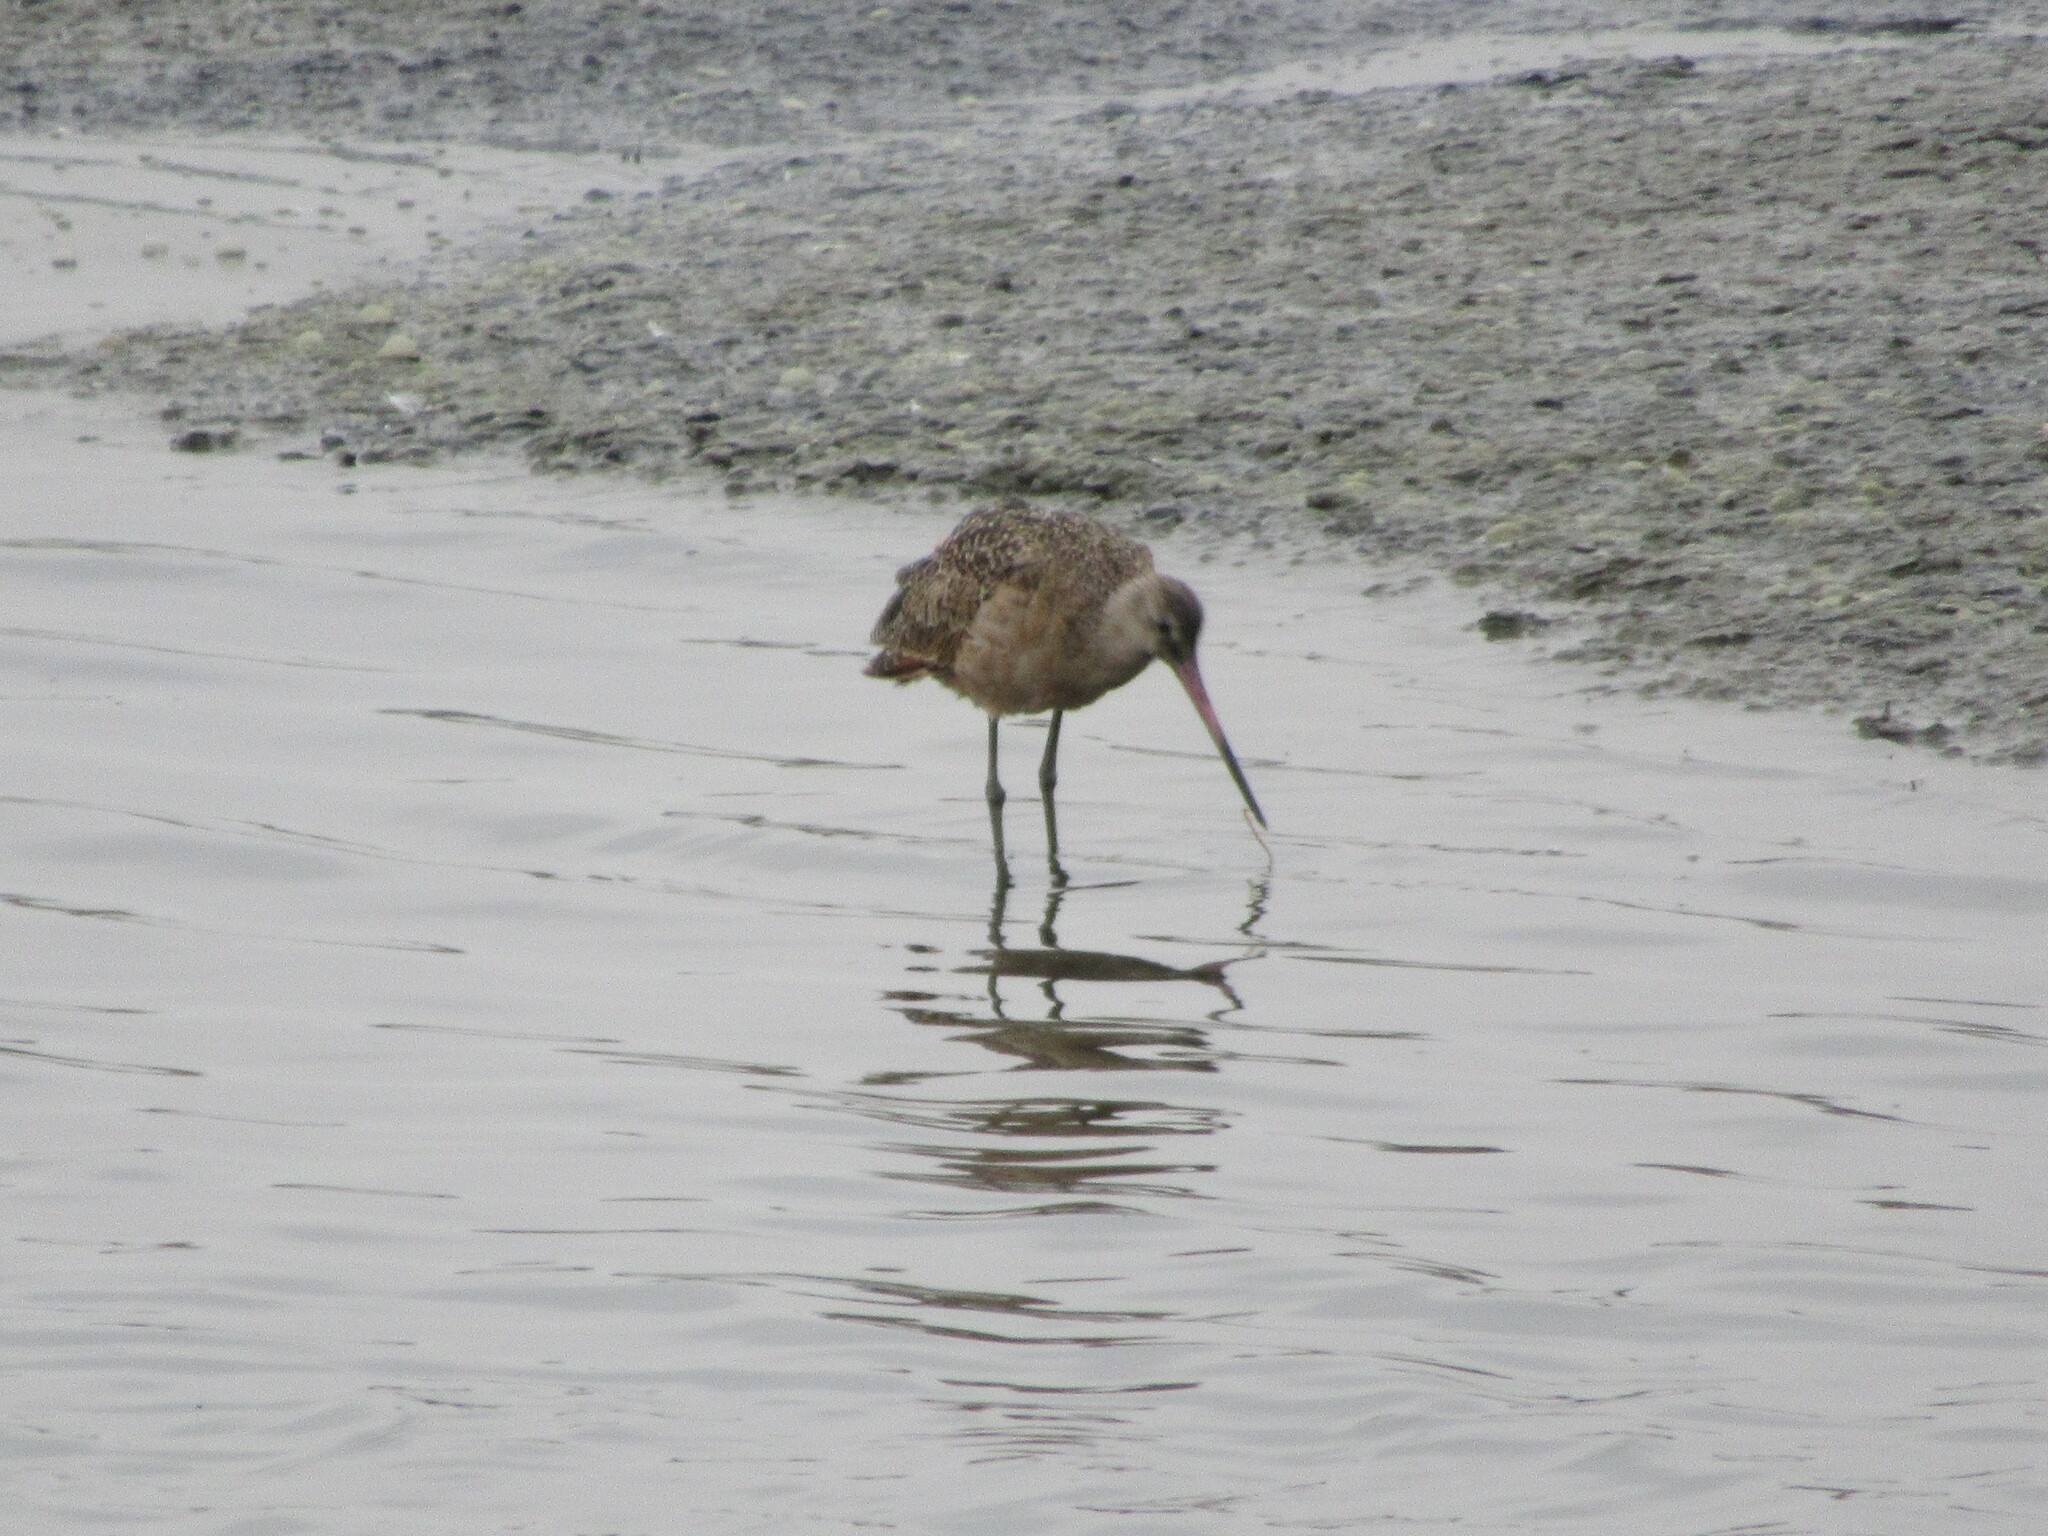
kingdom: Animalia
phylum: Chordata
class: Aves
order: Charadriiformes
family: Scolopacidae
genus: Limosa
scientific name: Limosa fedoa
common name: Marbled godwit
